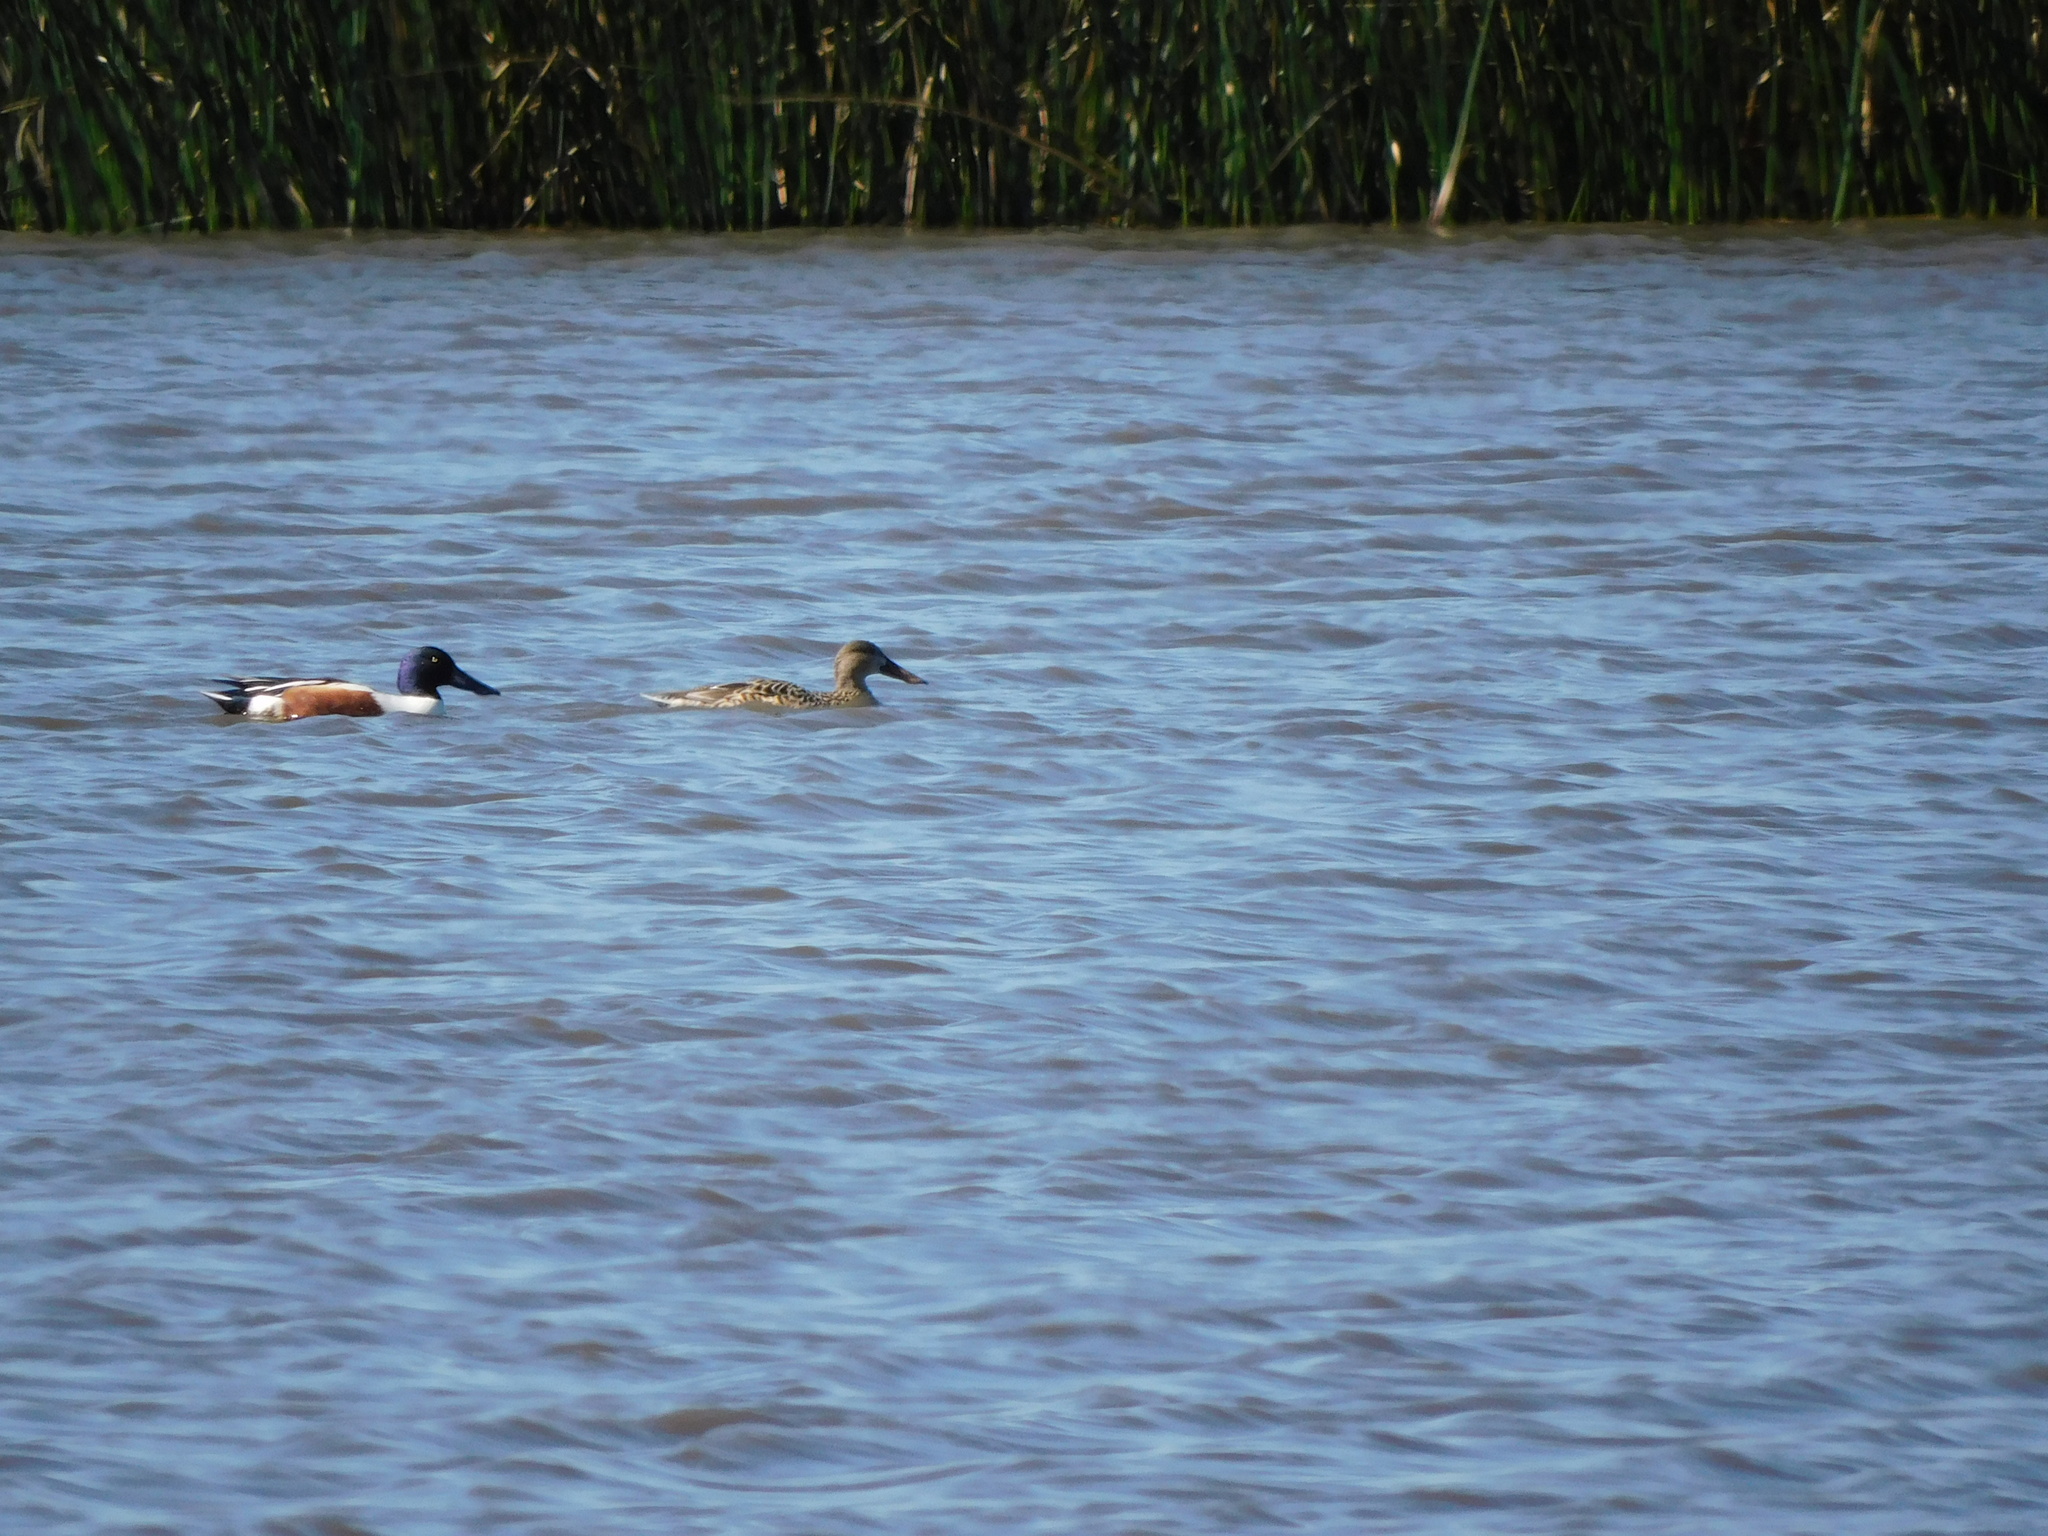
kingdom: Animalia
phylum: Chordata
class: Aves
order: Anseriformes
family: Anatidae
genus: Spatula
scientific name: Spatula clypeata
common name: Northern shoveler
